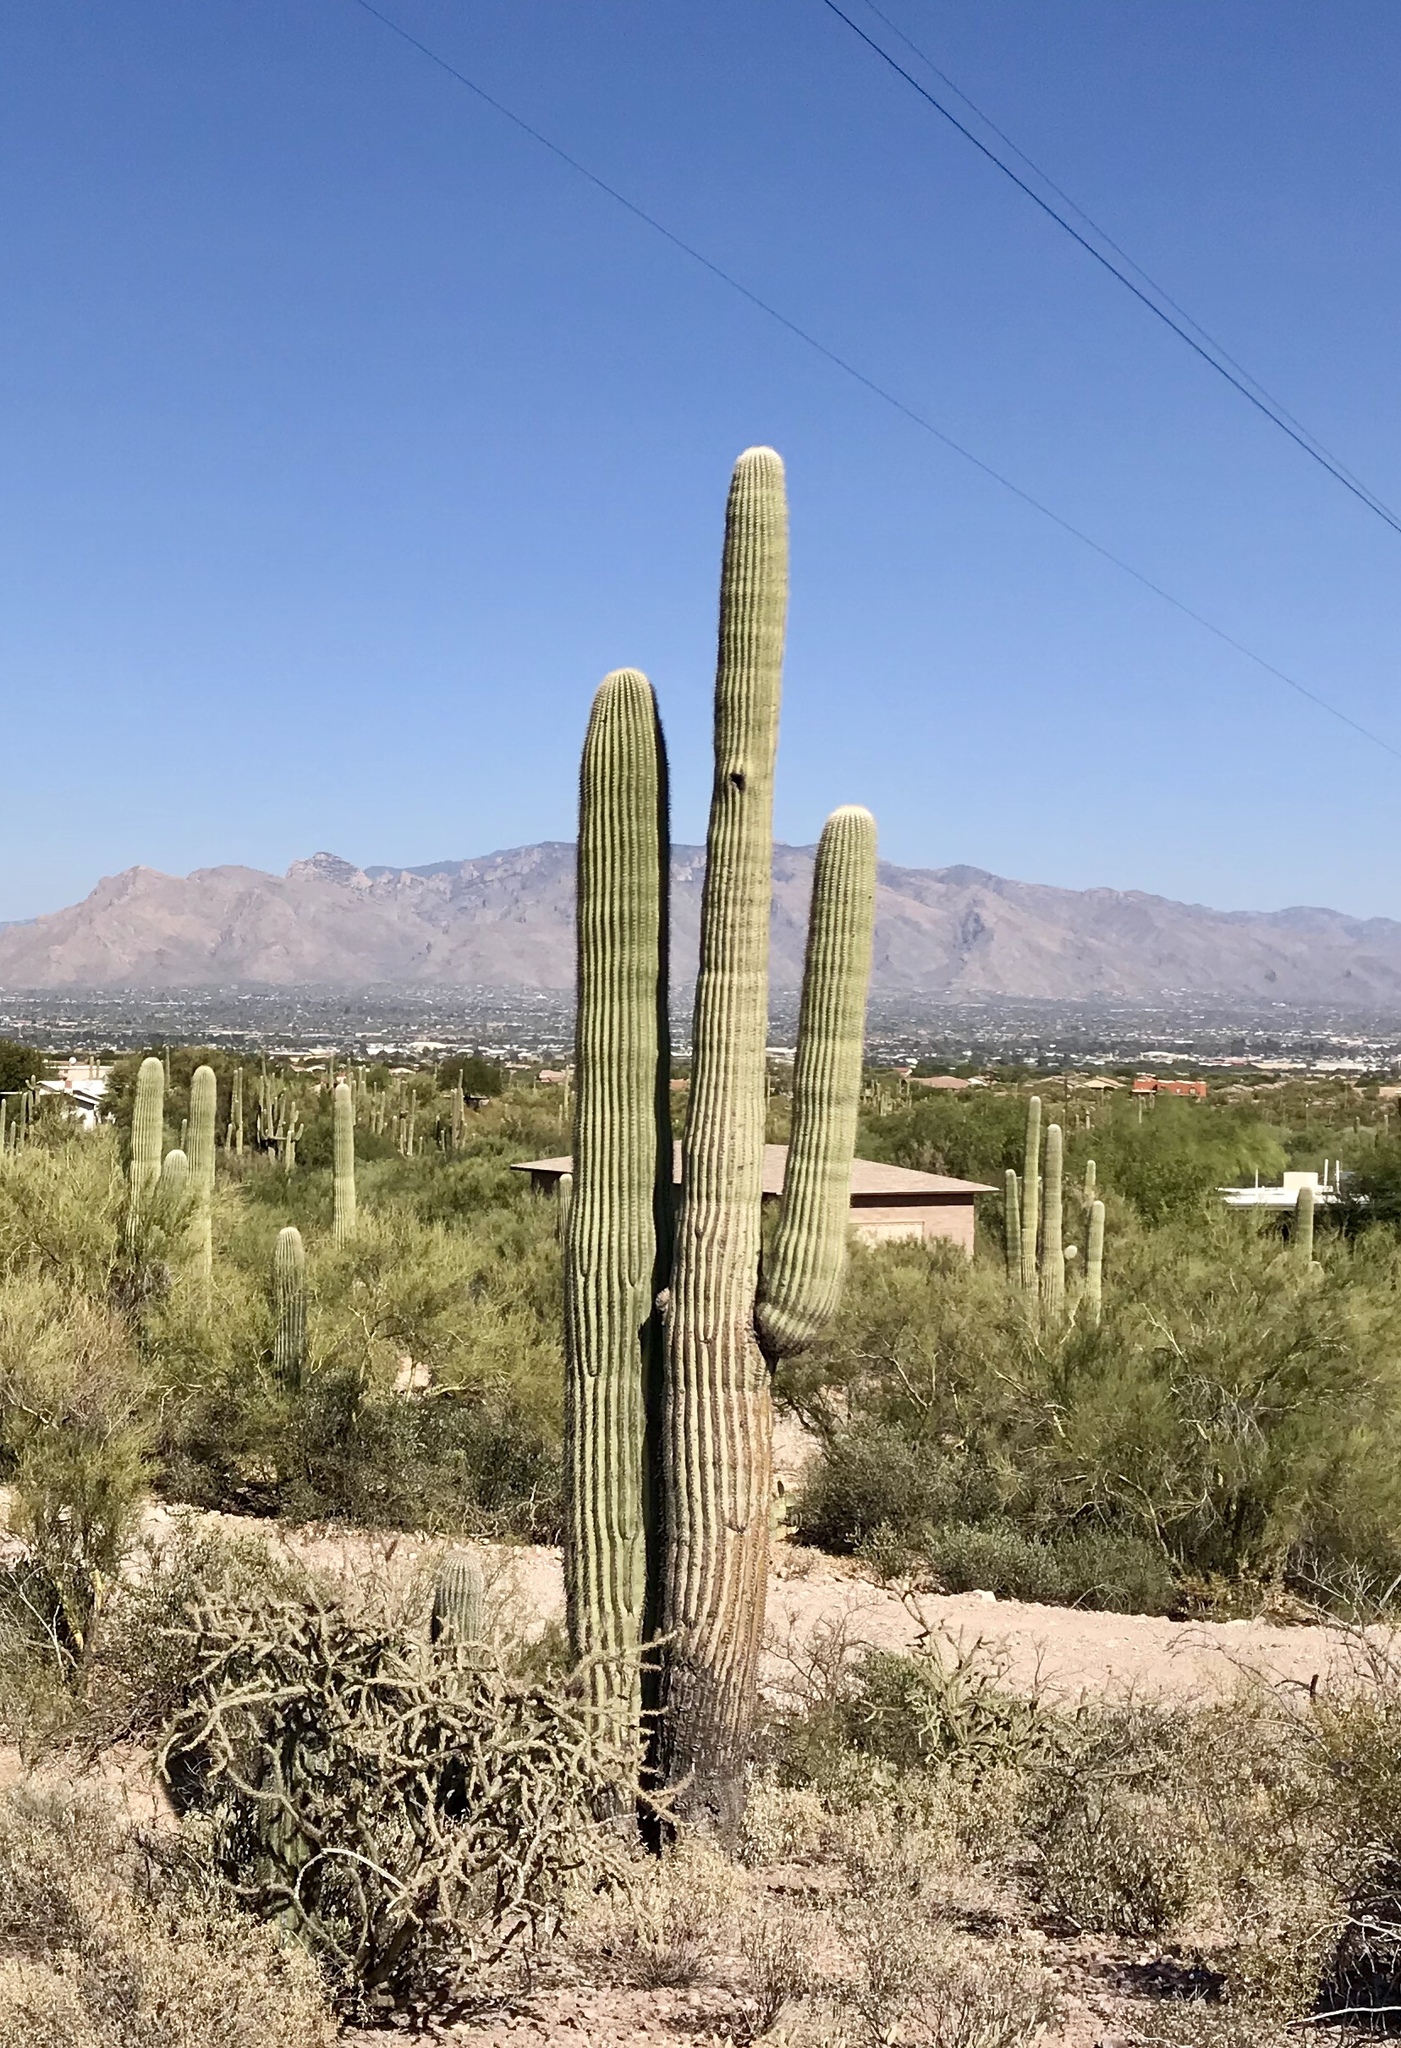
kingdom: Plantae
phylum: Tracheophyta
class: Magnoliopsida
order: Caryophyllales
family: Cactaceae
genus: Carnegiea
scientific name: Carnegiea gigantea
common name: Saguaro
